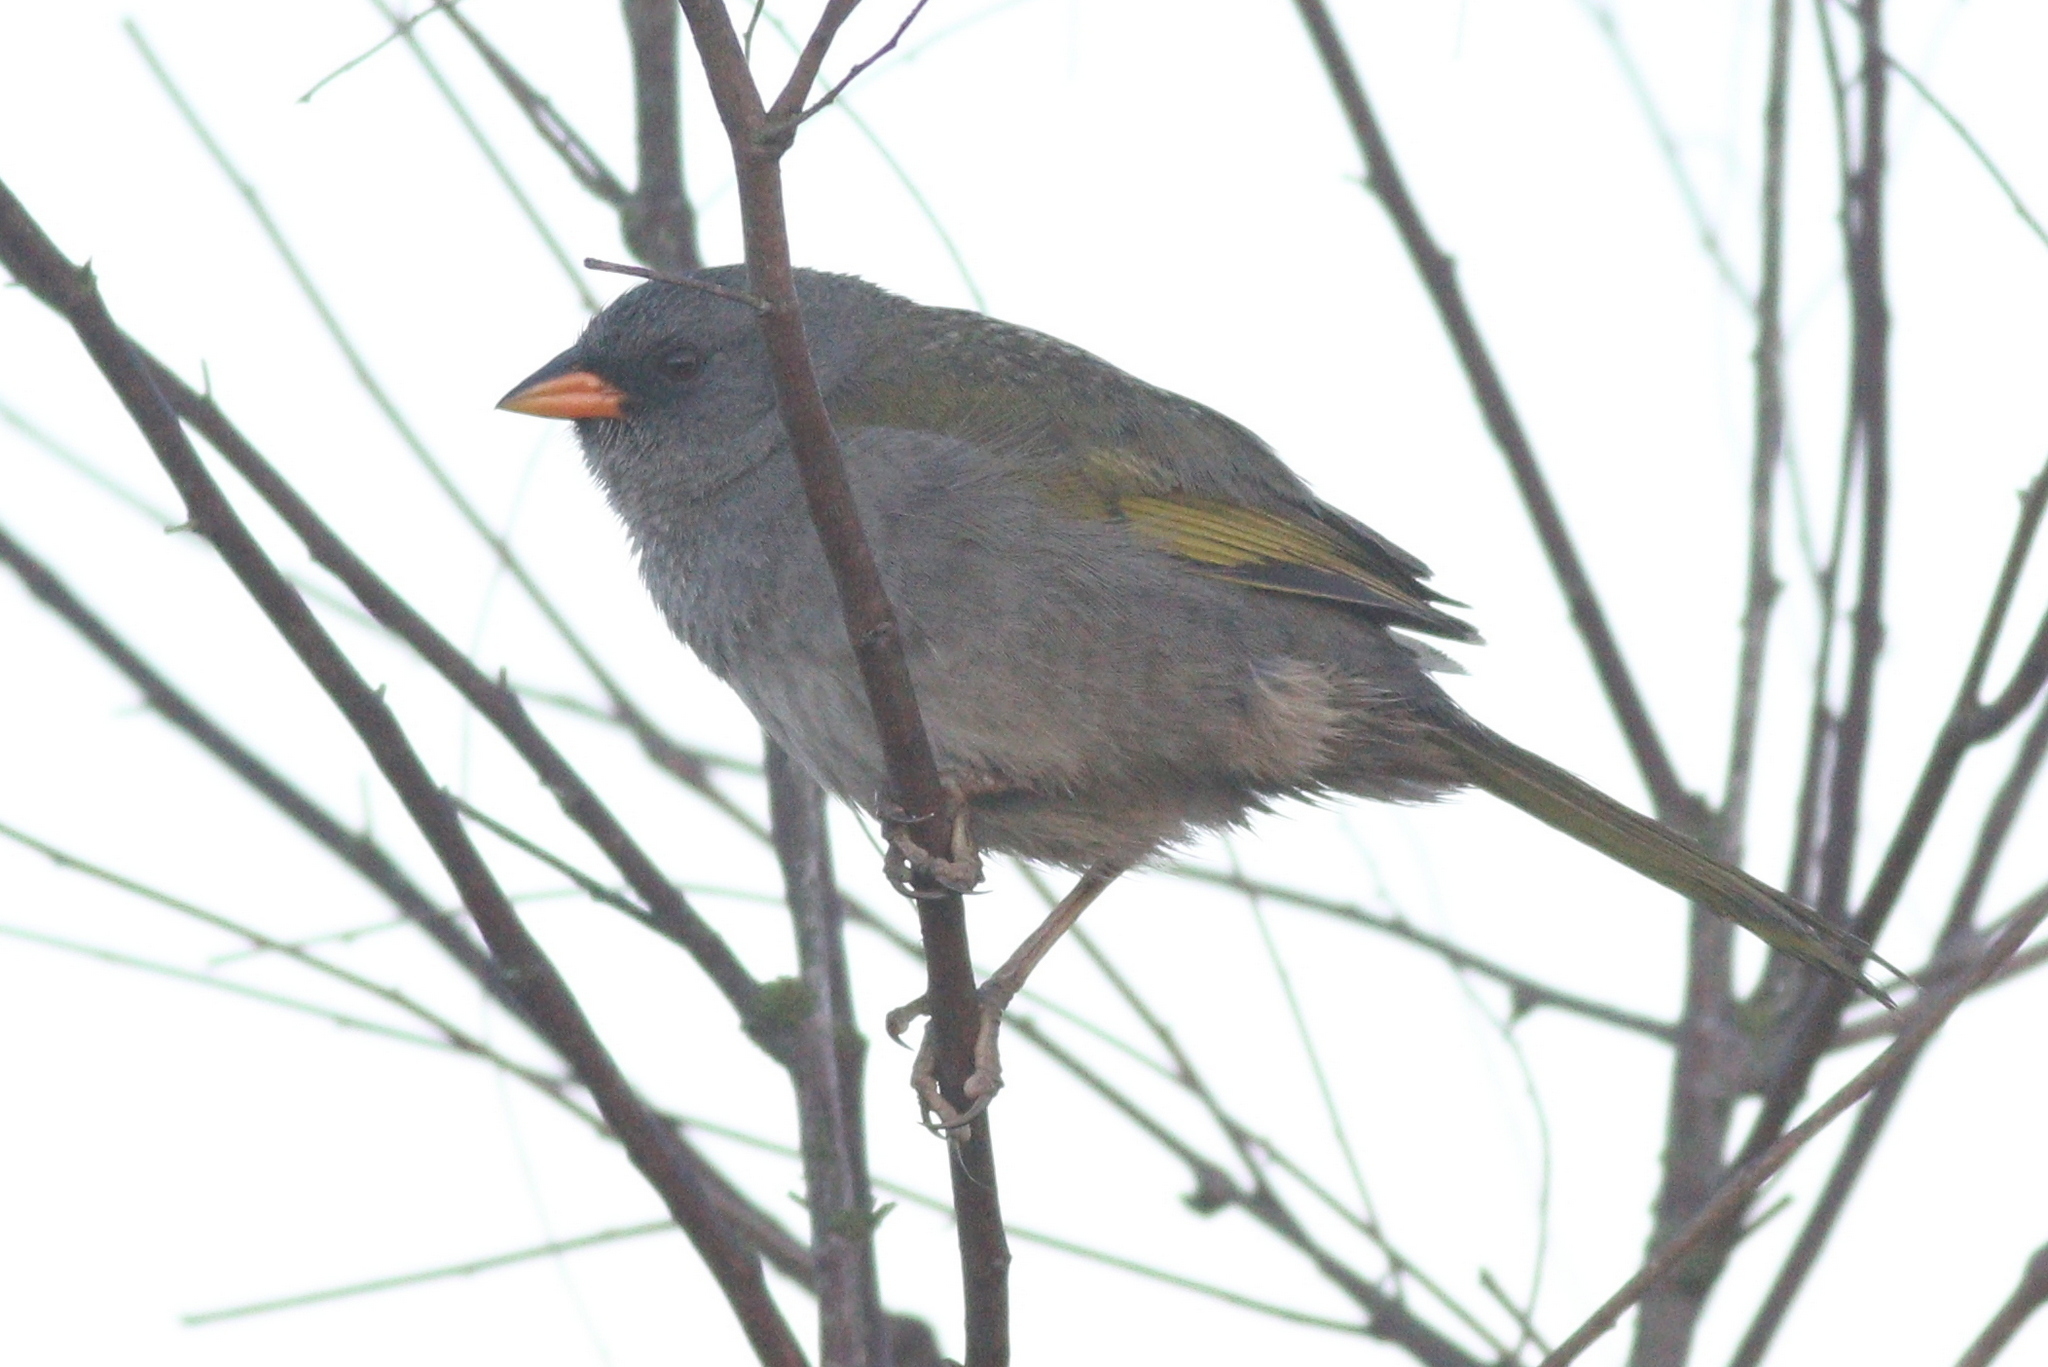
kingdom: Animalia
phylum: Chordata
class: Aves
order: Passeriformes
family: Thraupidae
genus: Embernagra
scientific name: Embernagra platensis
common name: Pampa finch
